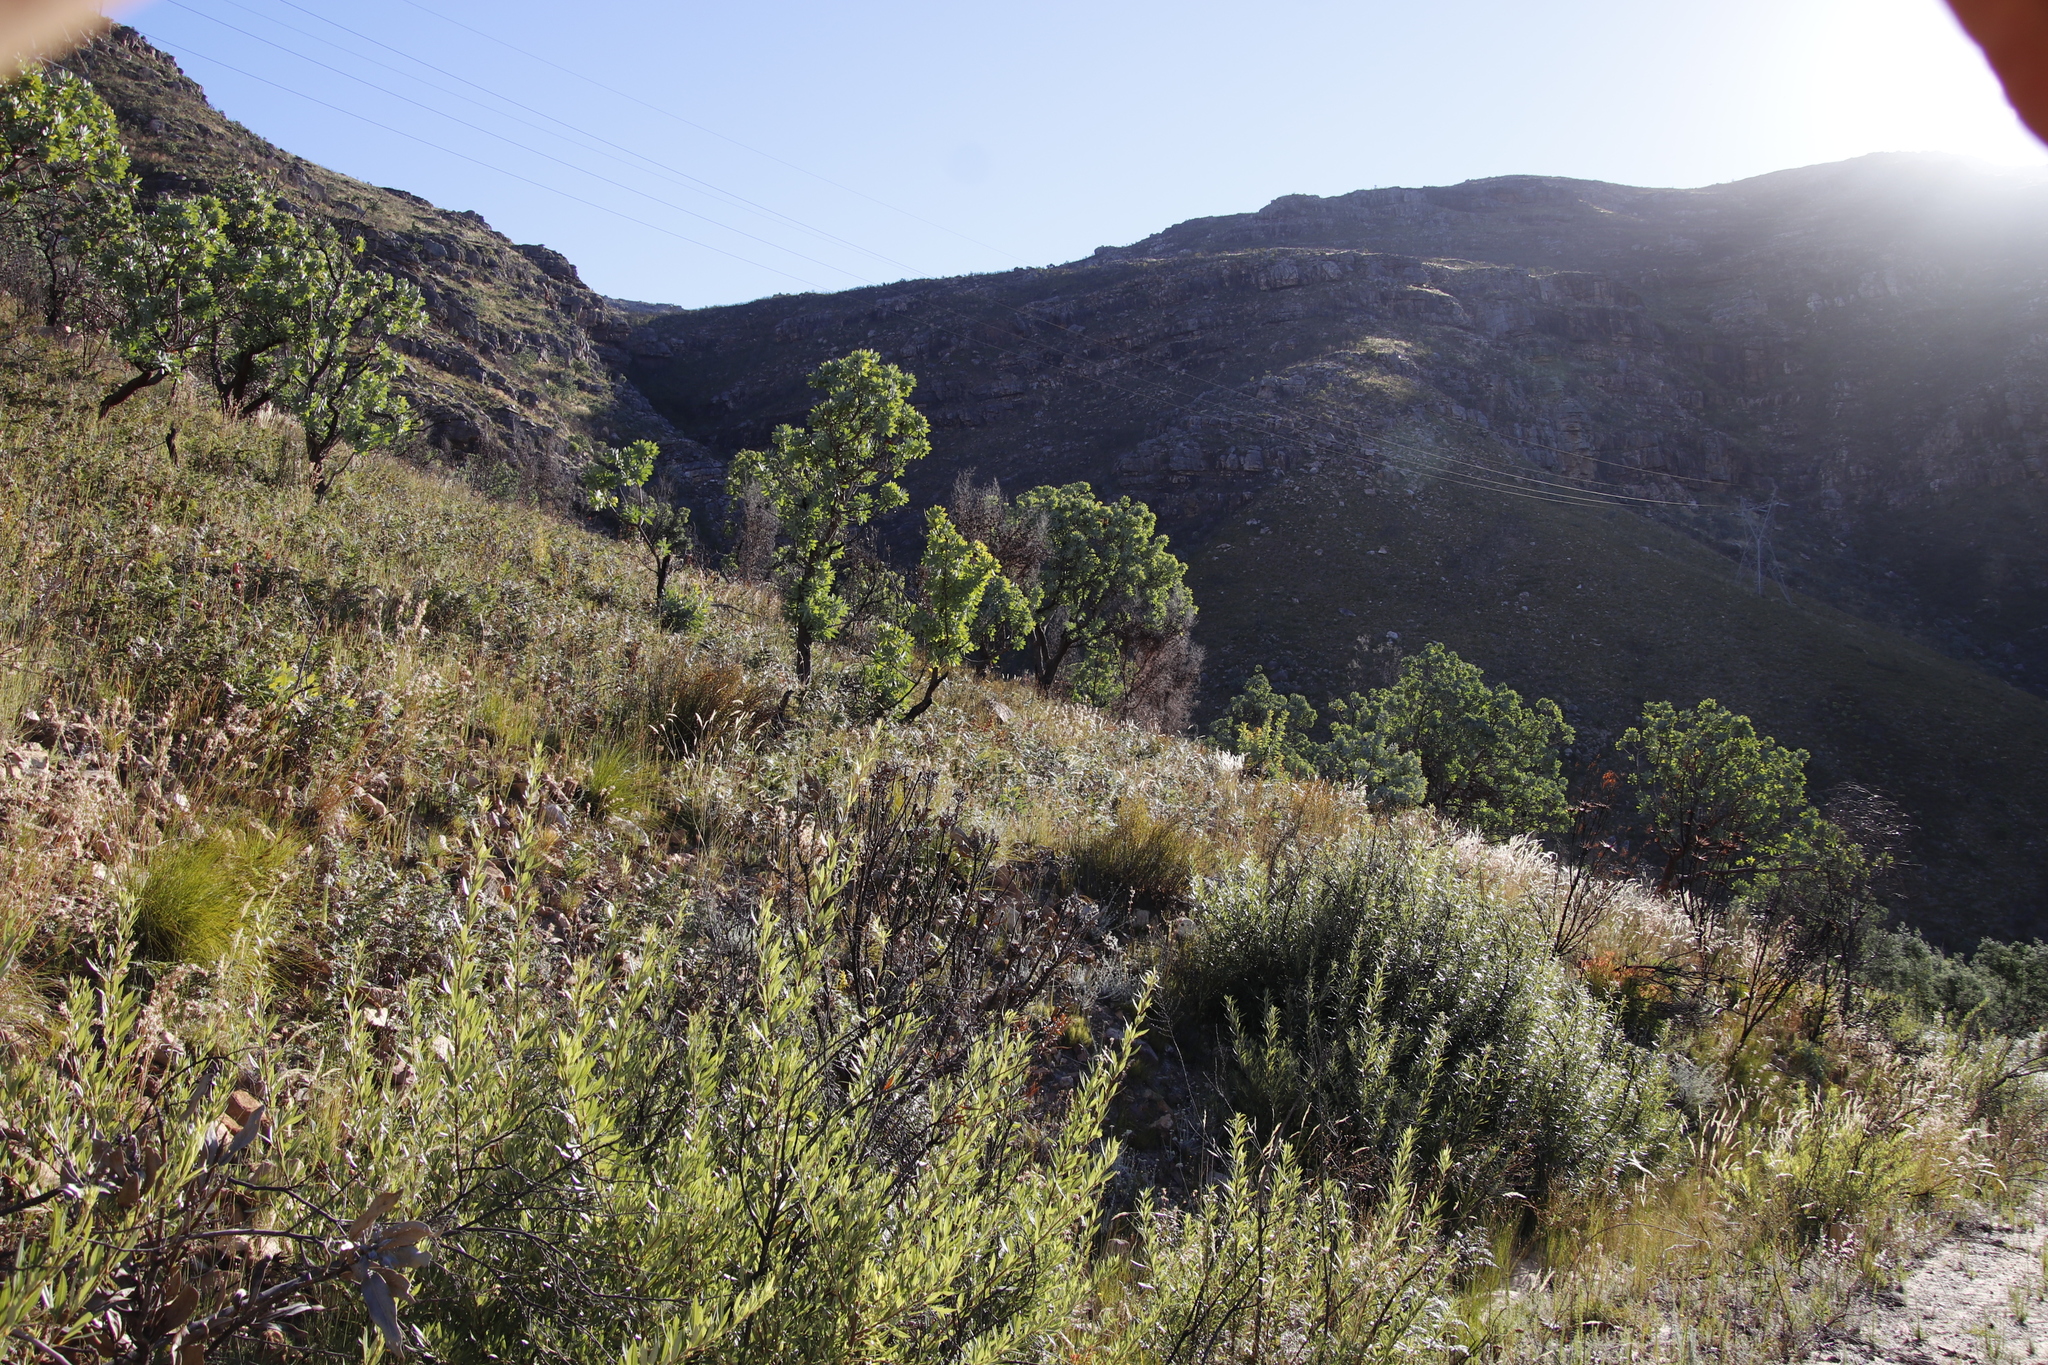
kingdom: Plantae
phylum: Tracheophyta
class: Magnoliopsida
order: Proteales
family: Proteaceae
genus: Protea
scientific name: Protea nitida
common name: Tree protea
